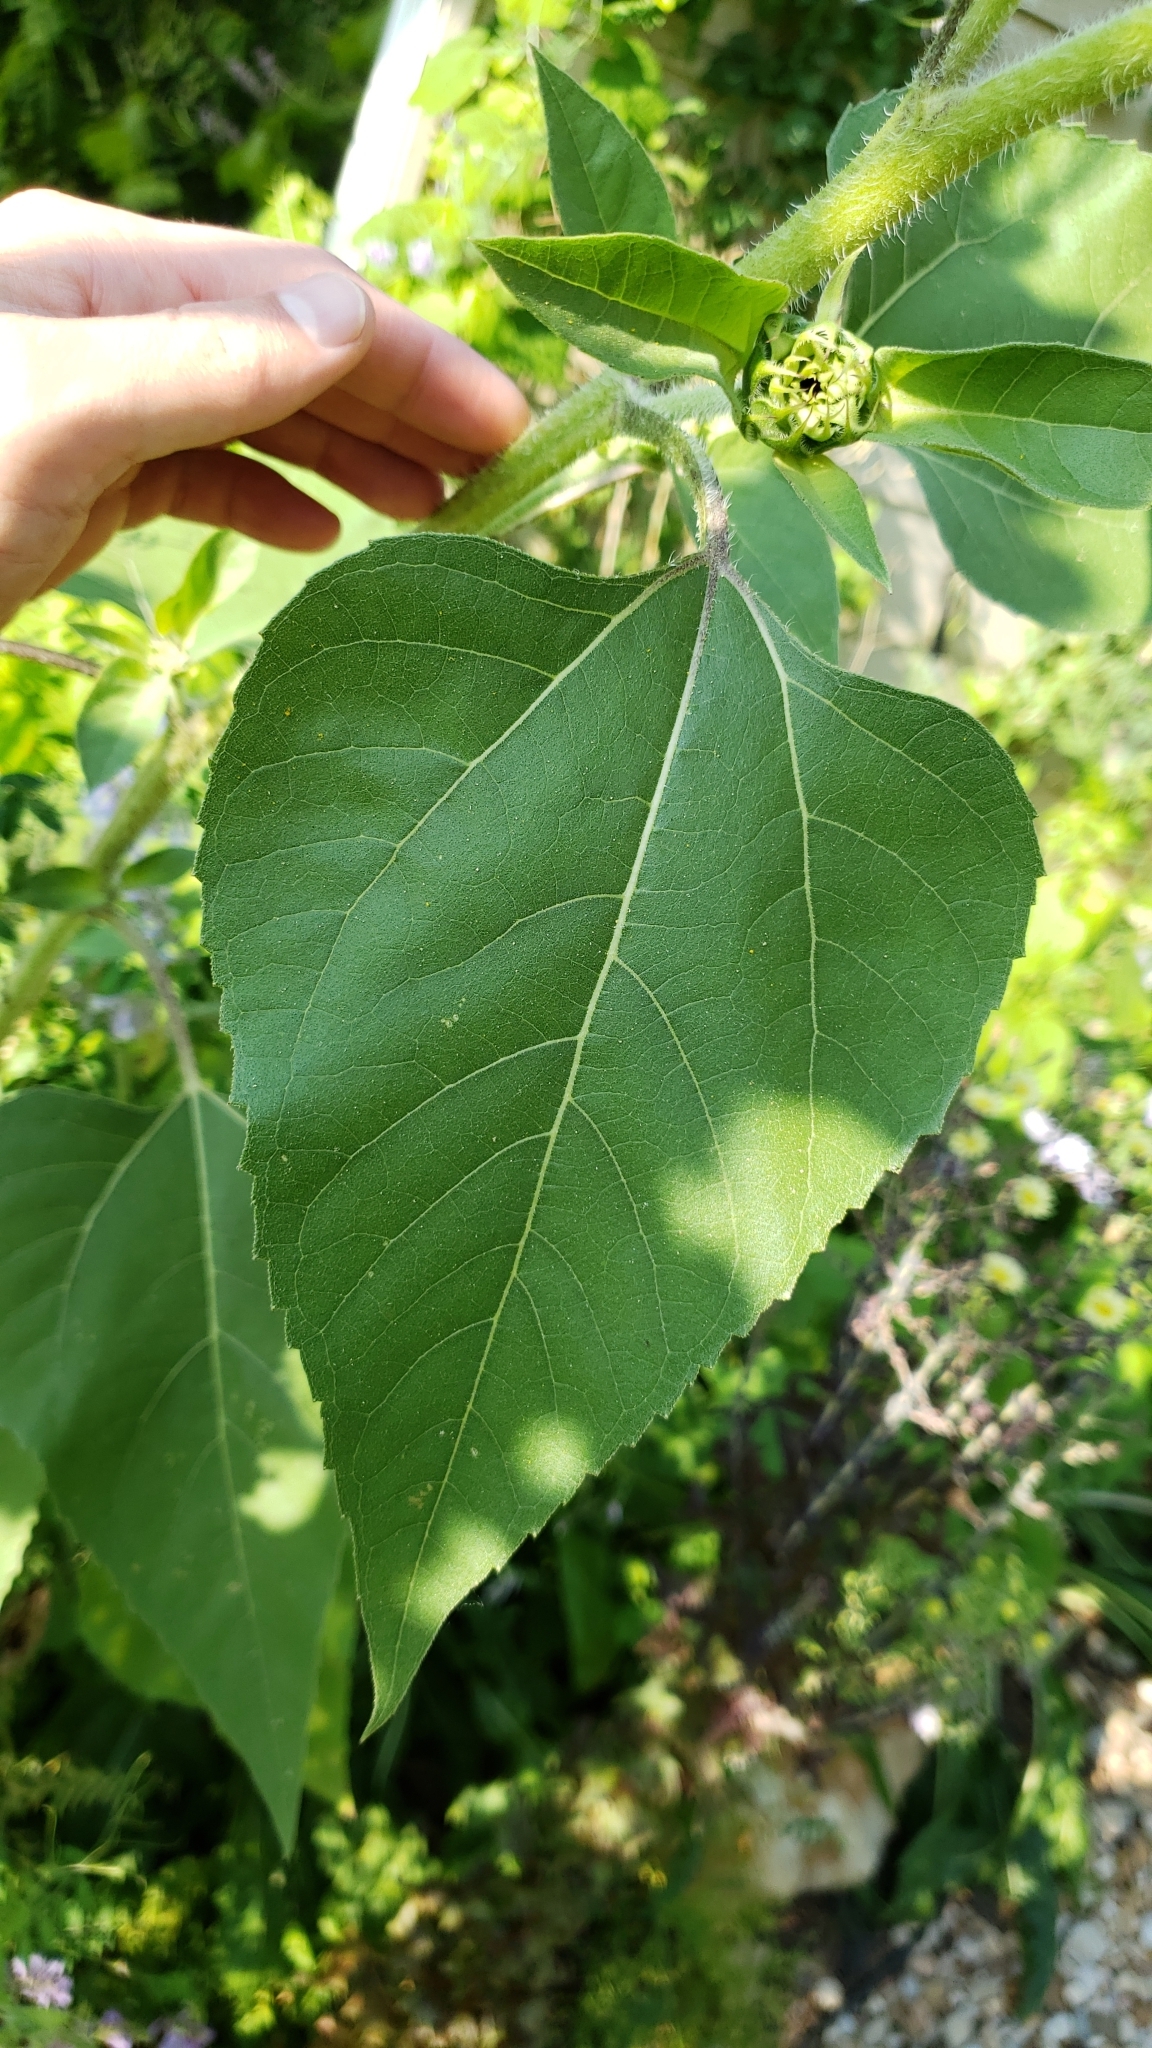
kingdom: Plantae
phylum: Tracheophyta
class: Magnoliopsida
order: Asterales
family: Asteraceae
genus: Helianthus
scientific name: Helianthus annuus
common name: Sunflower
